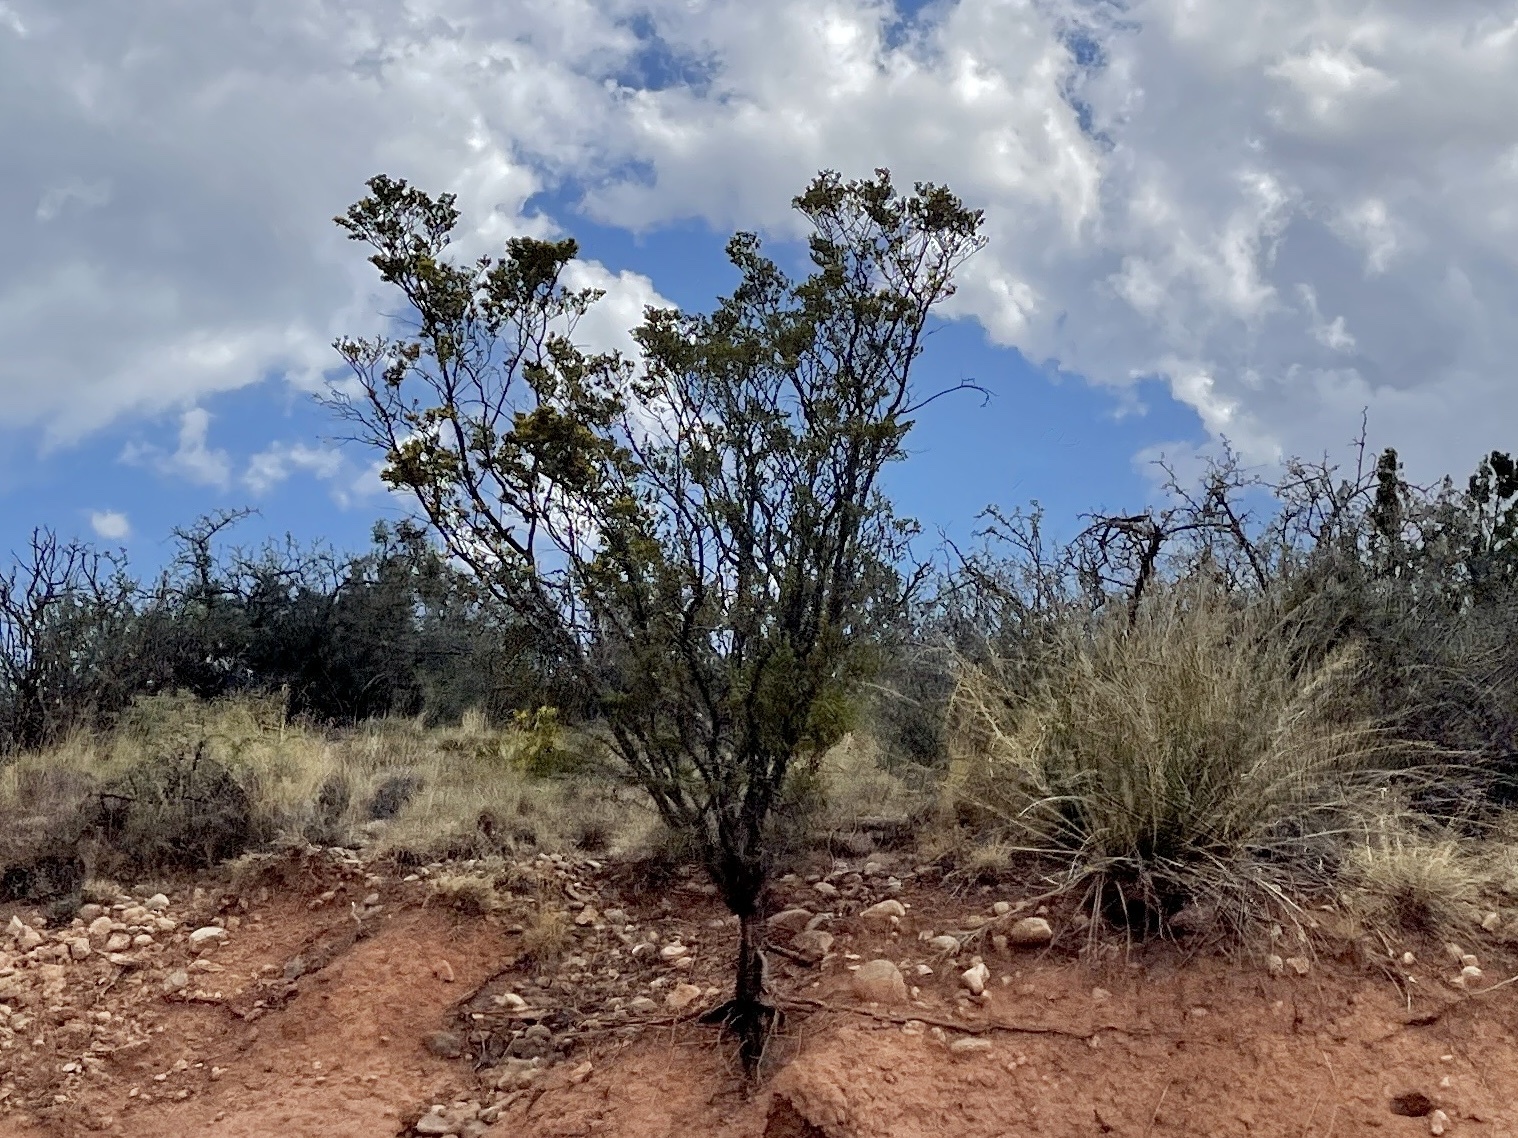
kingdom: Plantae
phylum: Tracheophyta
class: Magnoliopsida
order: Zygophyllales
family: Zygophyllaceae
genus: Larrea
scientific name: Larrea tridentata
